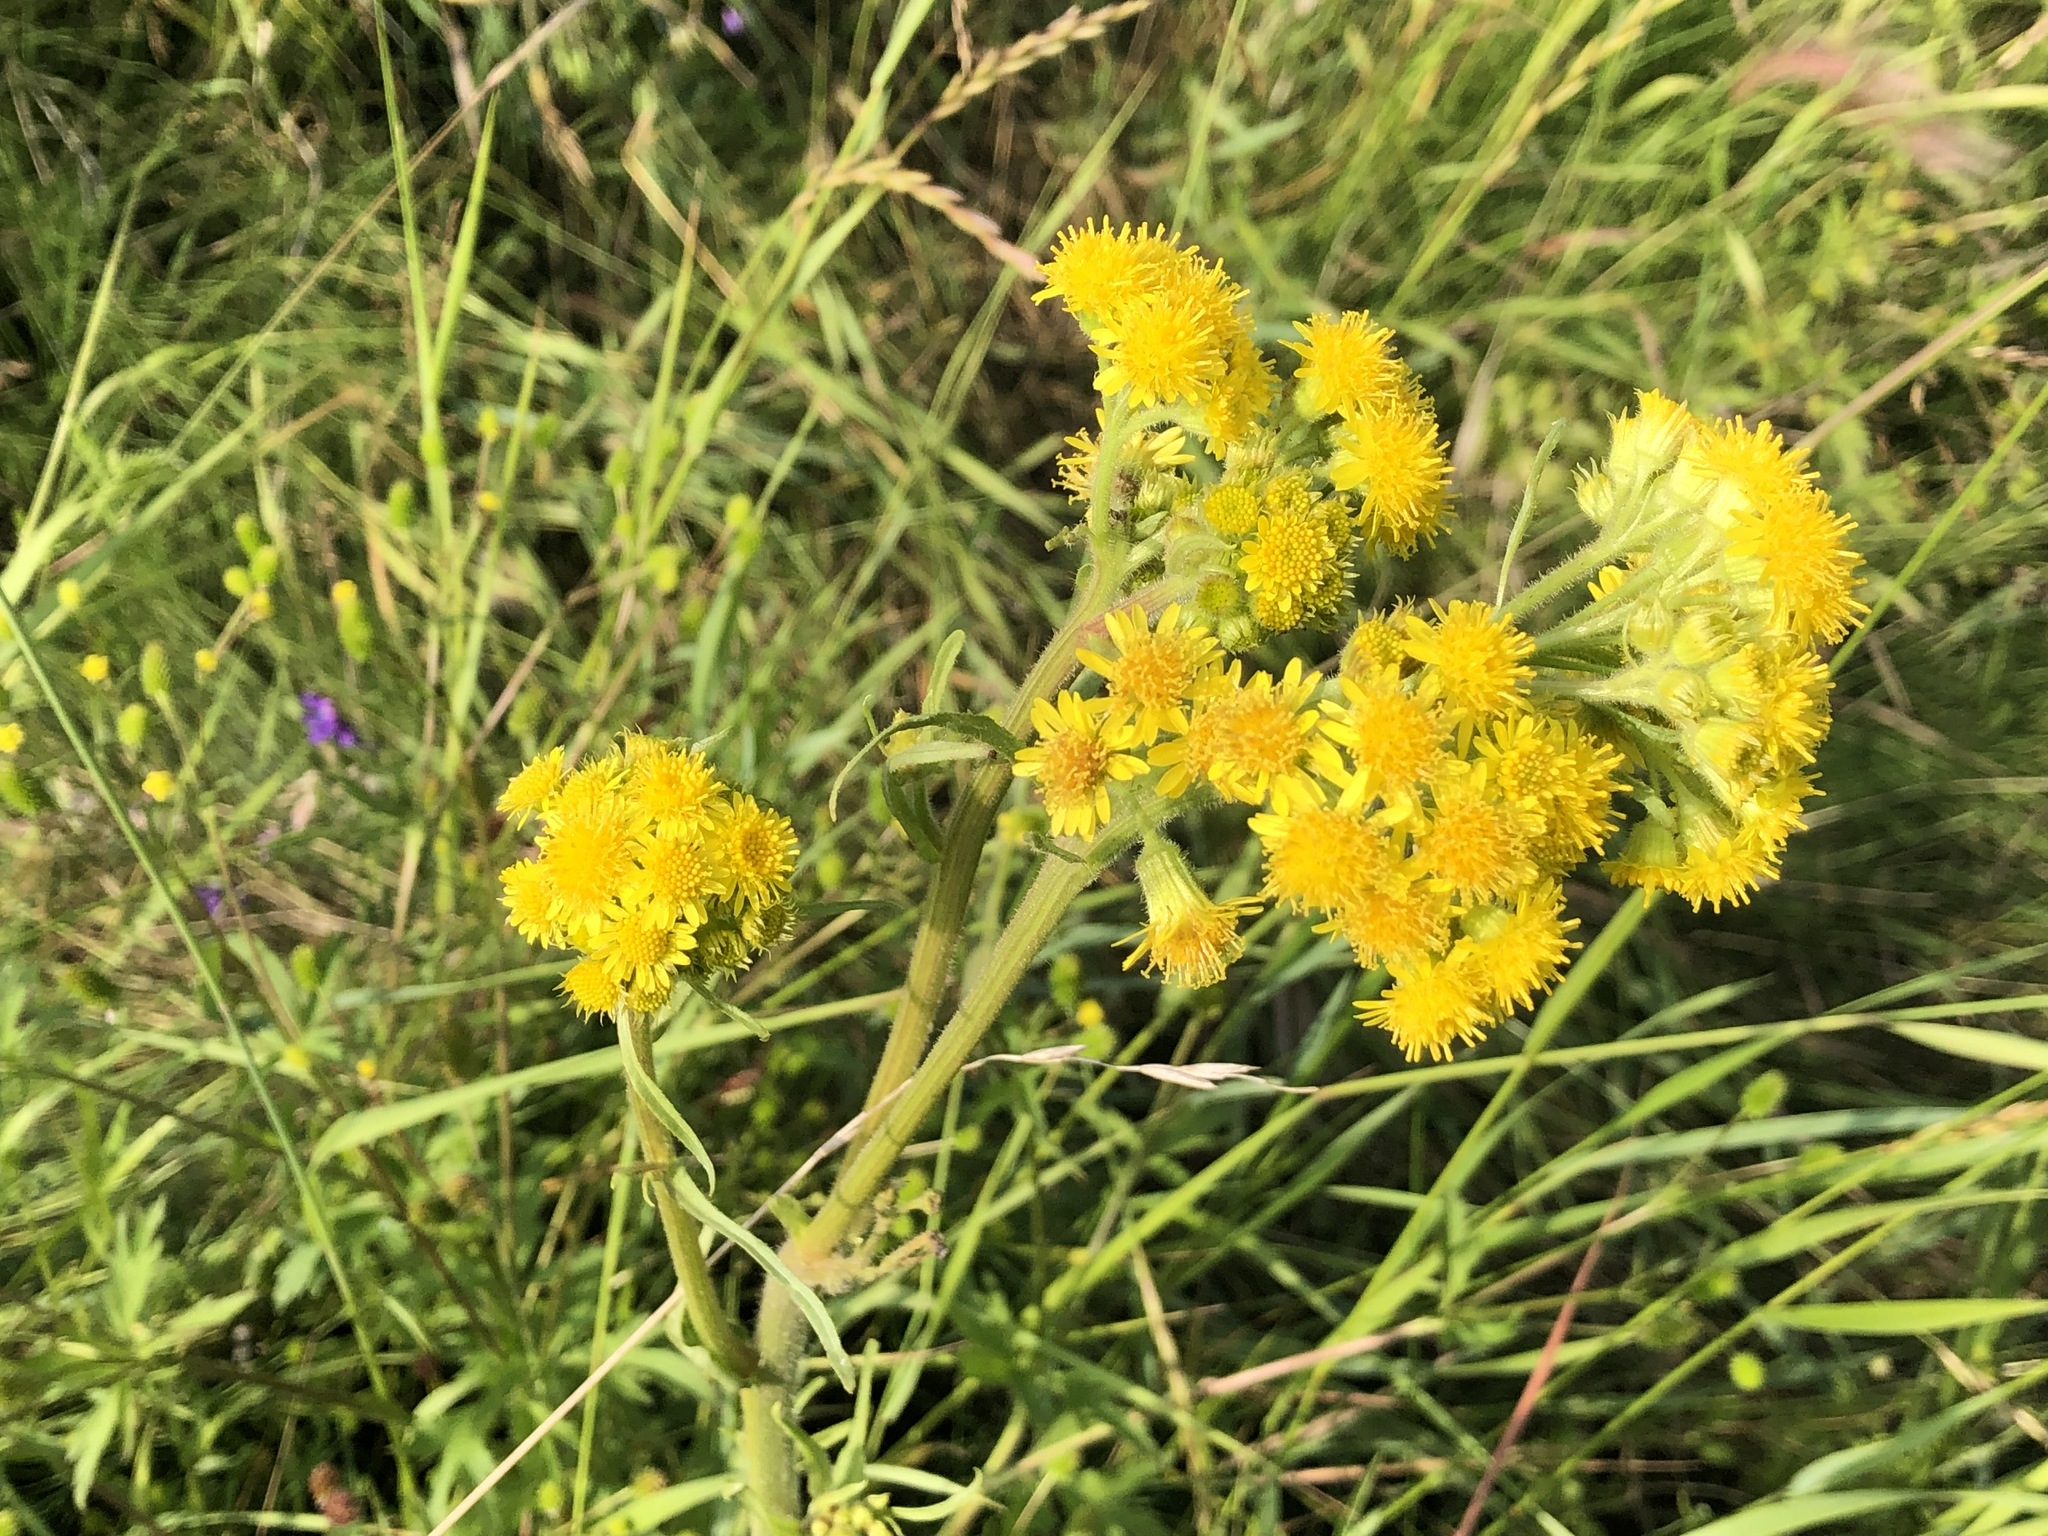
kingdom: Plantae
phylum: Tracheophyta
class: Magnoliopsida
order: Asterales
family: Asteraceae
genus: Tephroseris
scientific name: Tephroseris palustris
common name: Marsh fleawort
